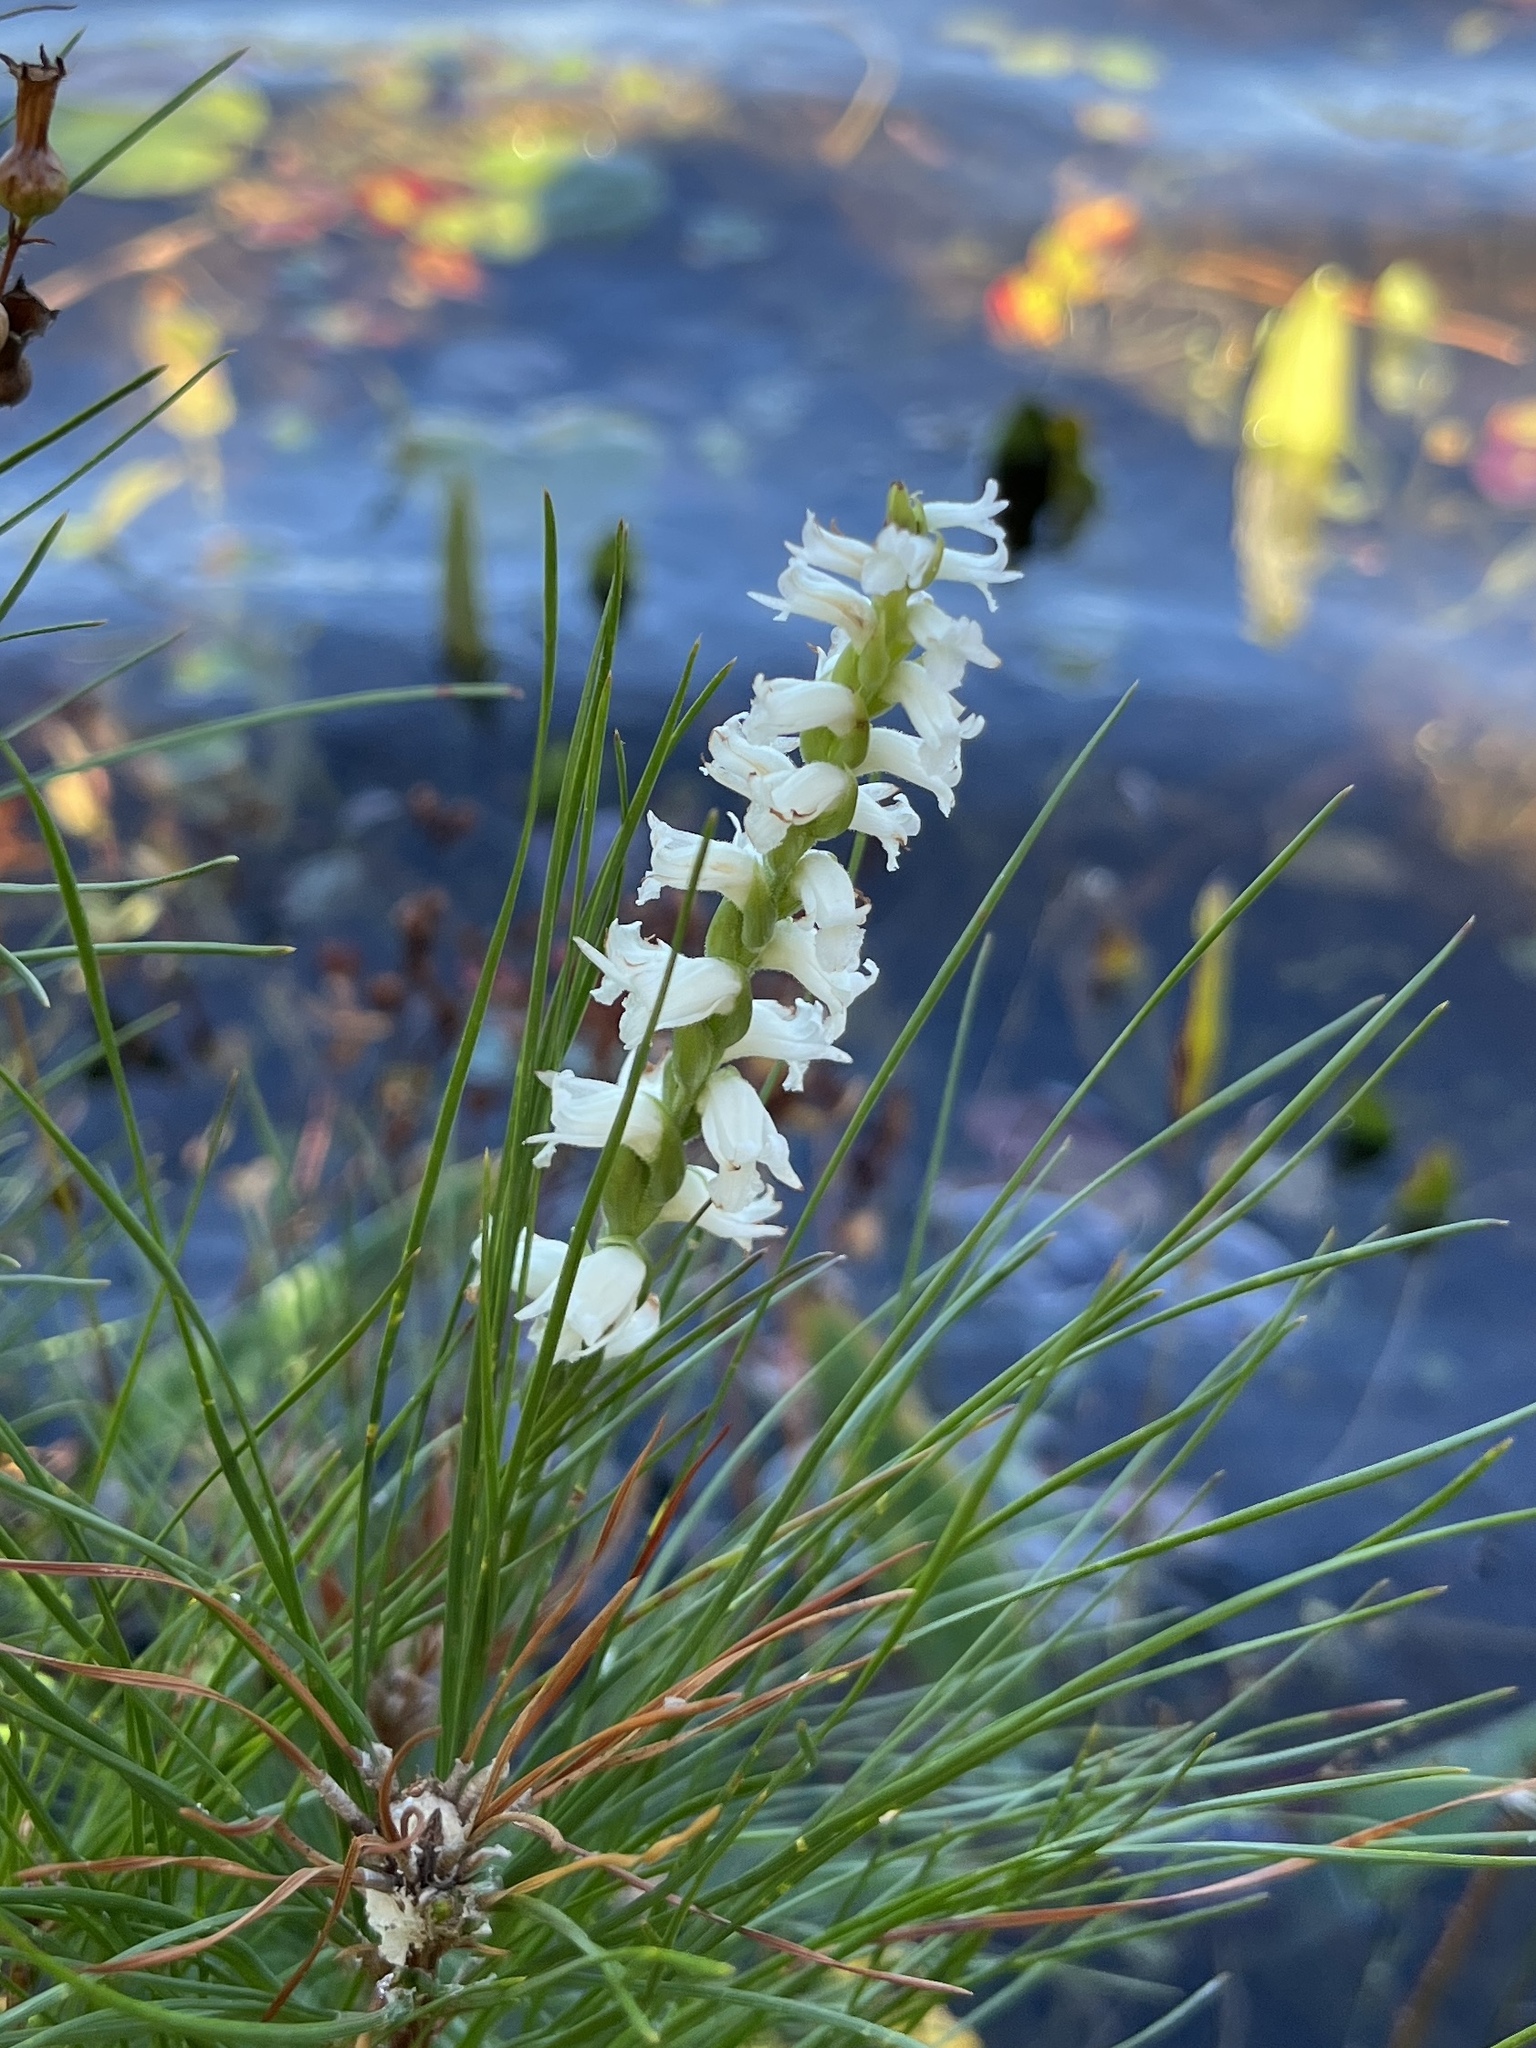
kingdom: Plantae
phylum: Tracheophyta
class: Liliopsida
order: Asparagales
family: Orchidaceae
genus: Spiranthes
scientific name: Spiranthes cernua
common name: Dropping ladies'-tresses
